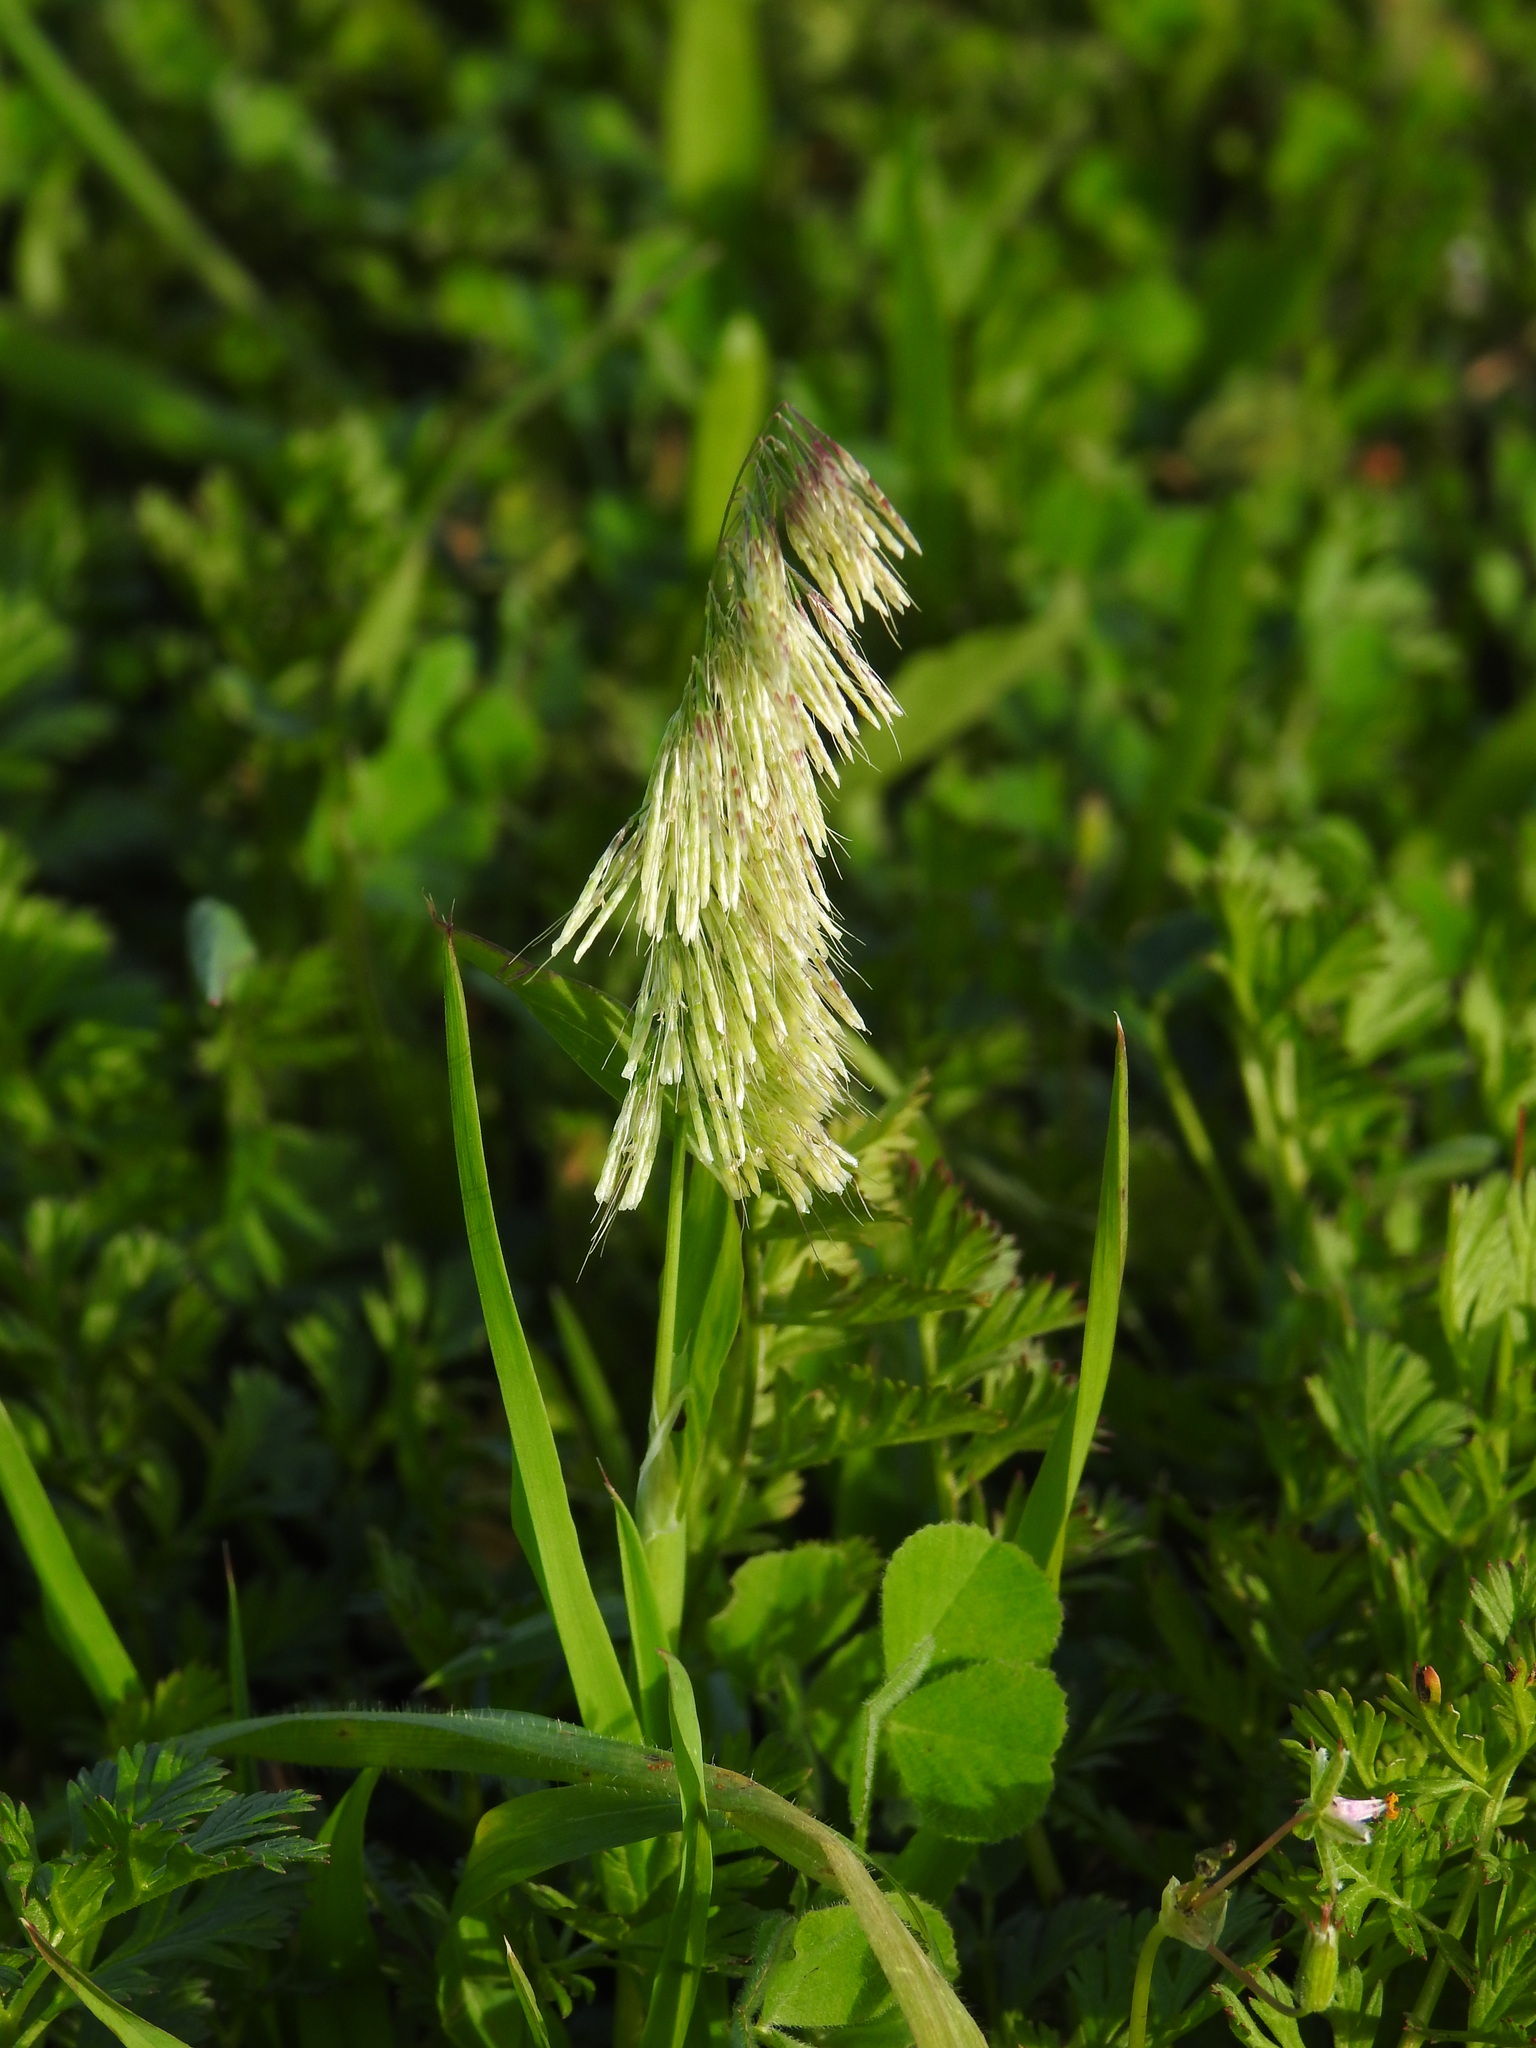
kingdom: Plantae
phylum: Tracheophyta
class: Liliopsida
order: Poales
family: Poaceae
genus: Lamarckia
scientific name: Lamarckia aurea
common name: Golden dog's-tail
